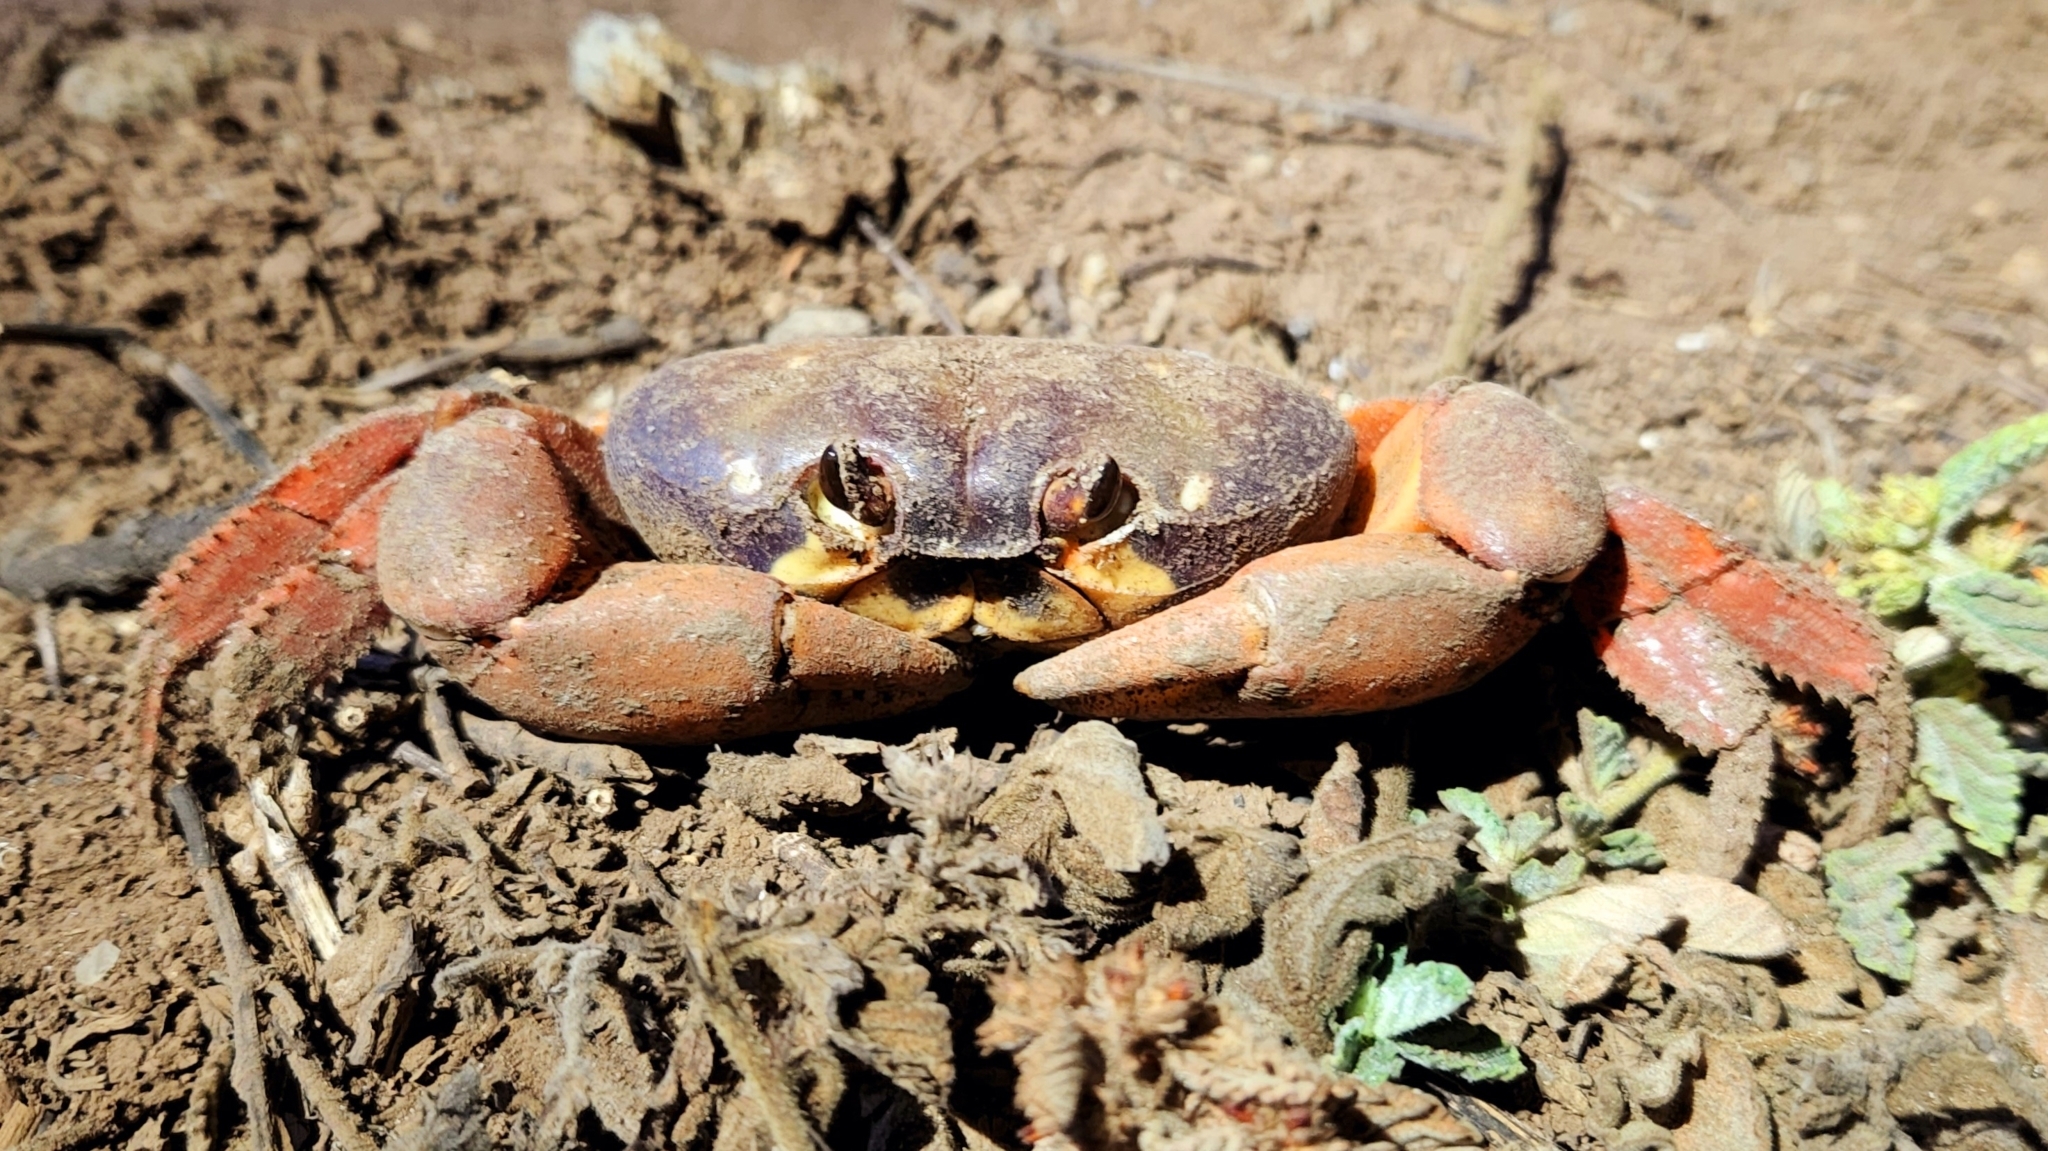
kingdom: Animalia
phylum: Arthropoda
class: Malacostraca
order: Decapoda
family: Gecarcinidae
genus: Johngarthia
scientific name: Johngarthia oceanica
